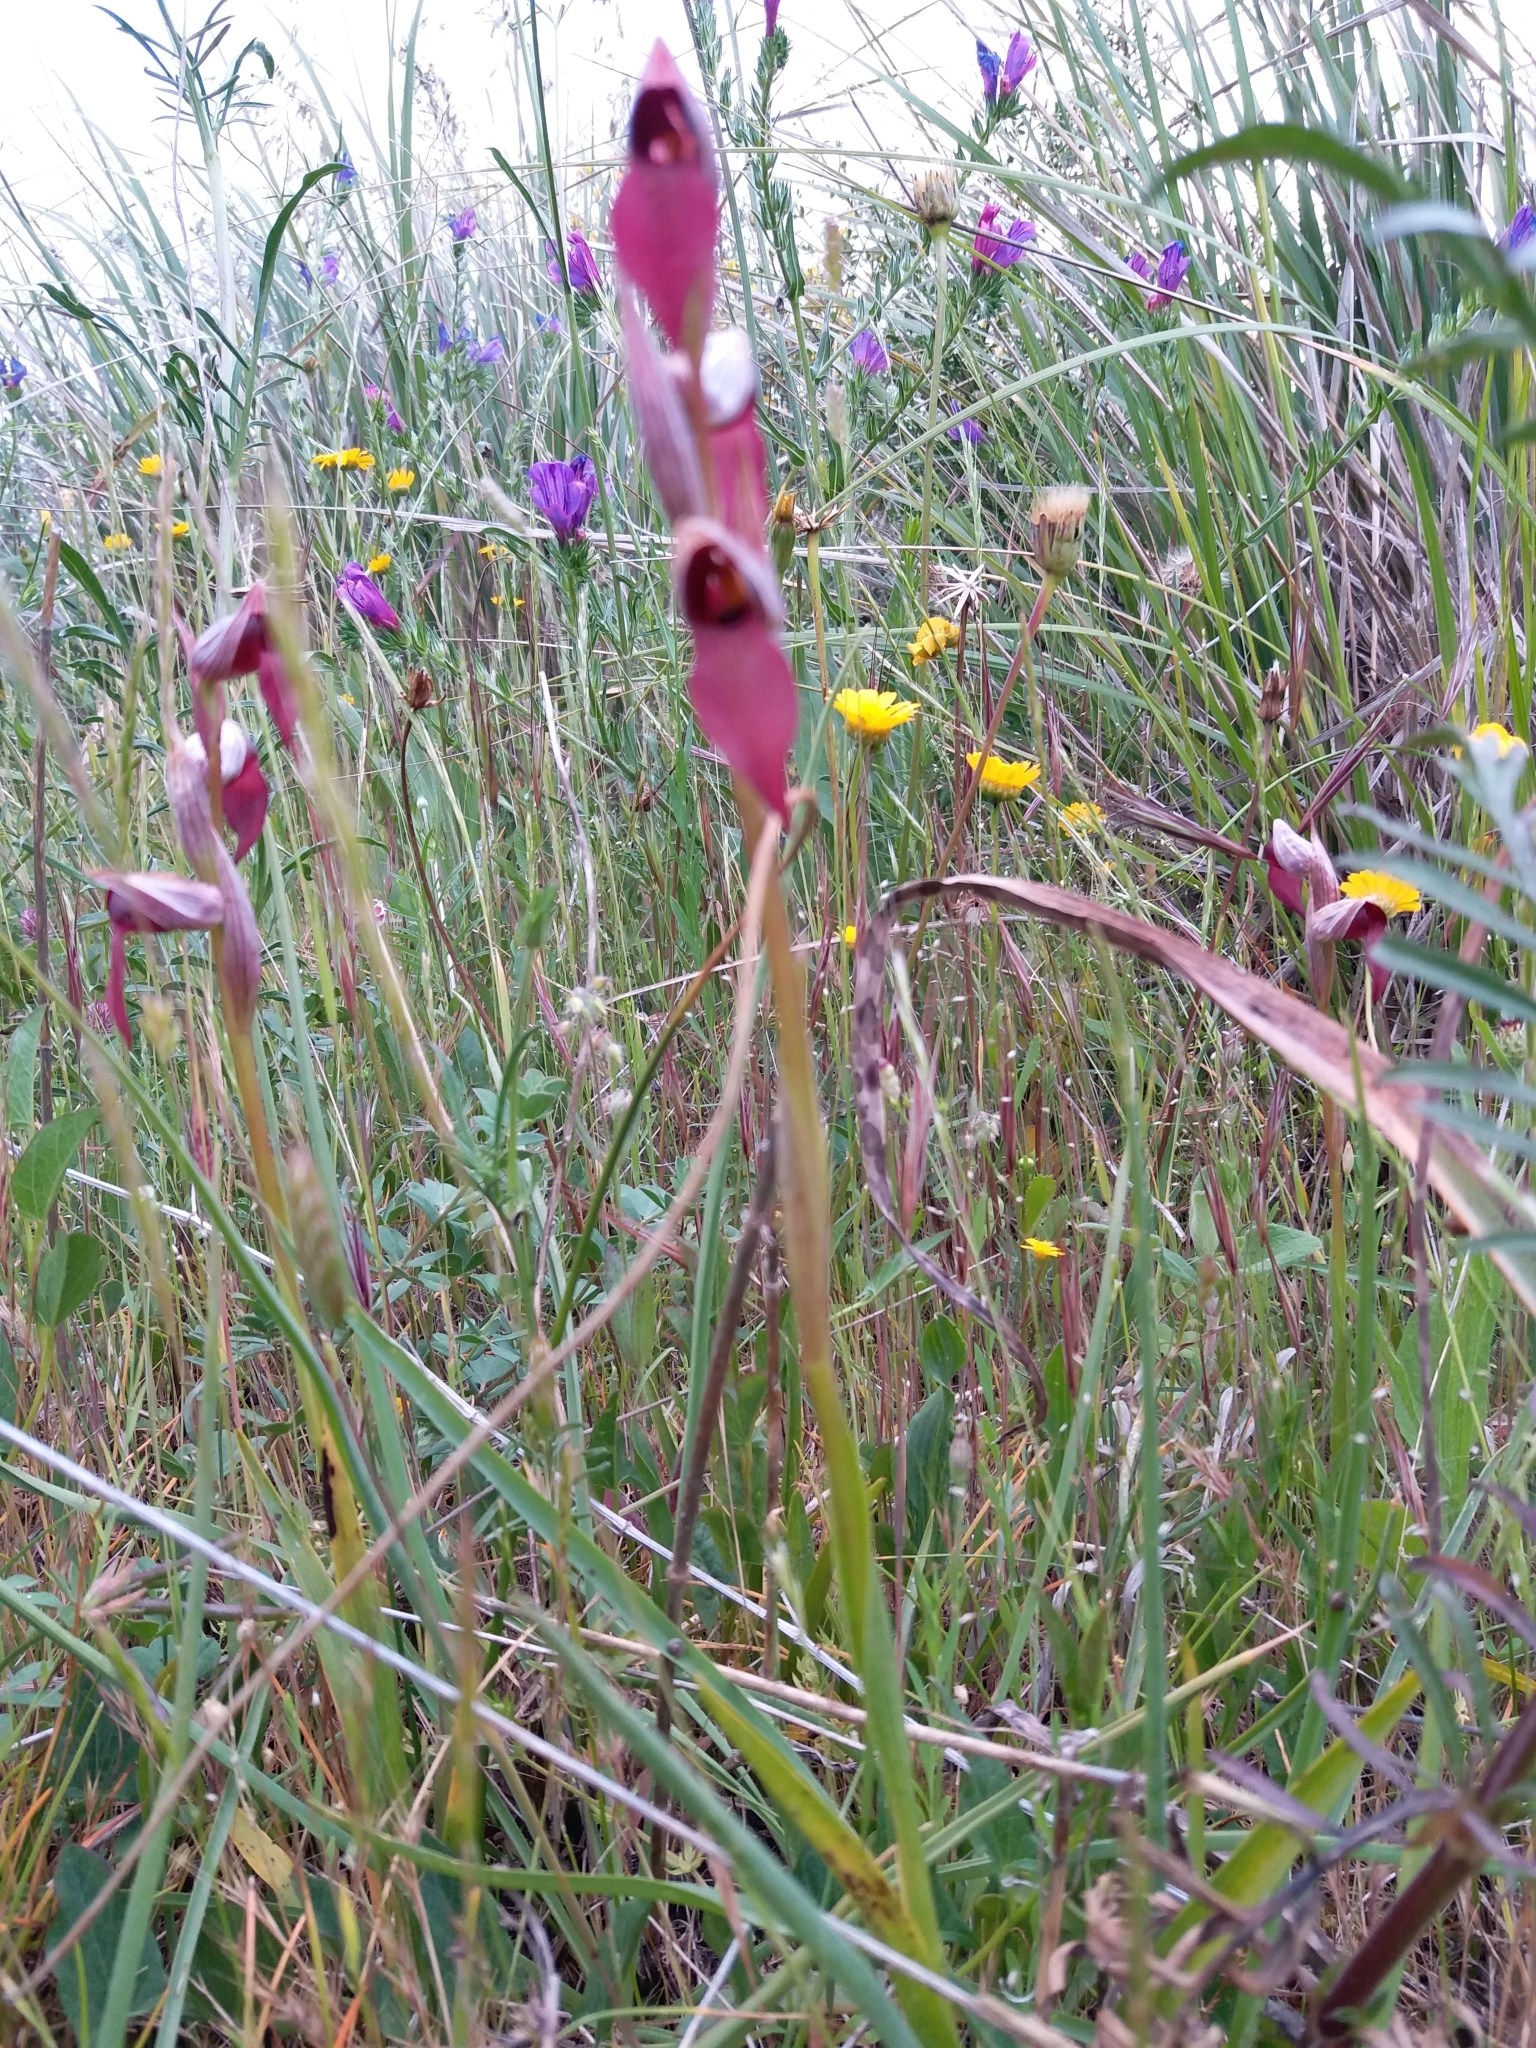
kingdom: Plantae
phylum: Tracheophyta
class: Liliopsida
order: Asparagales
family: Orchidaceae
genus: Serapias
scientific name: Serapias lingua
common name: Tongue-orchid
